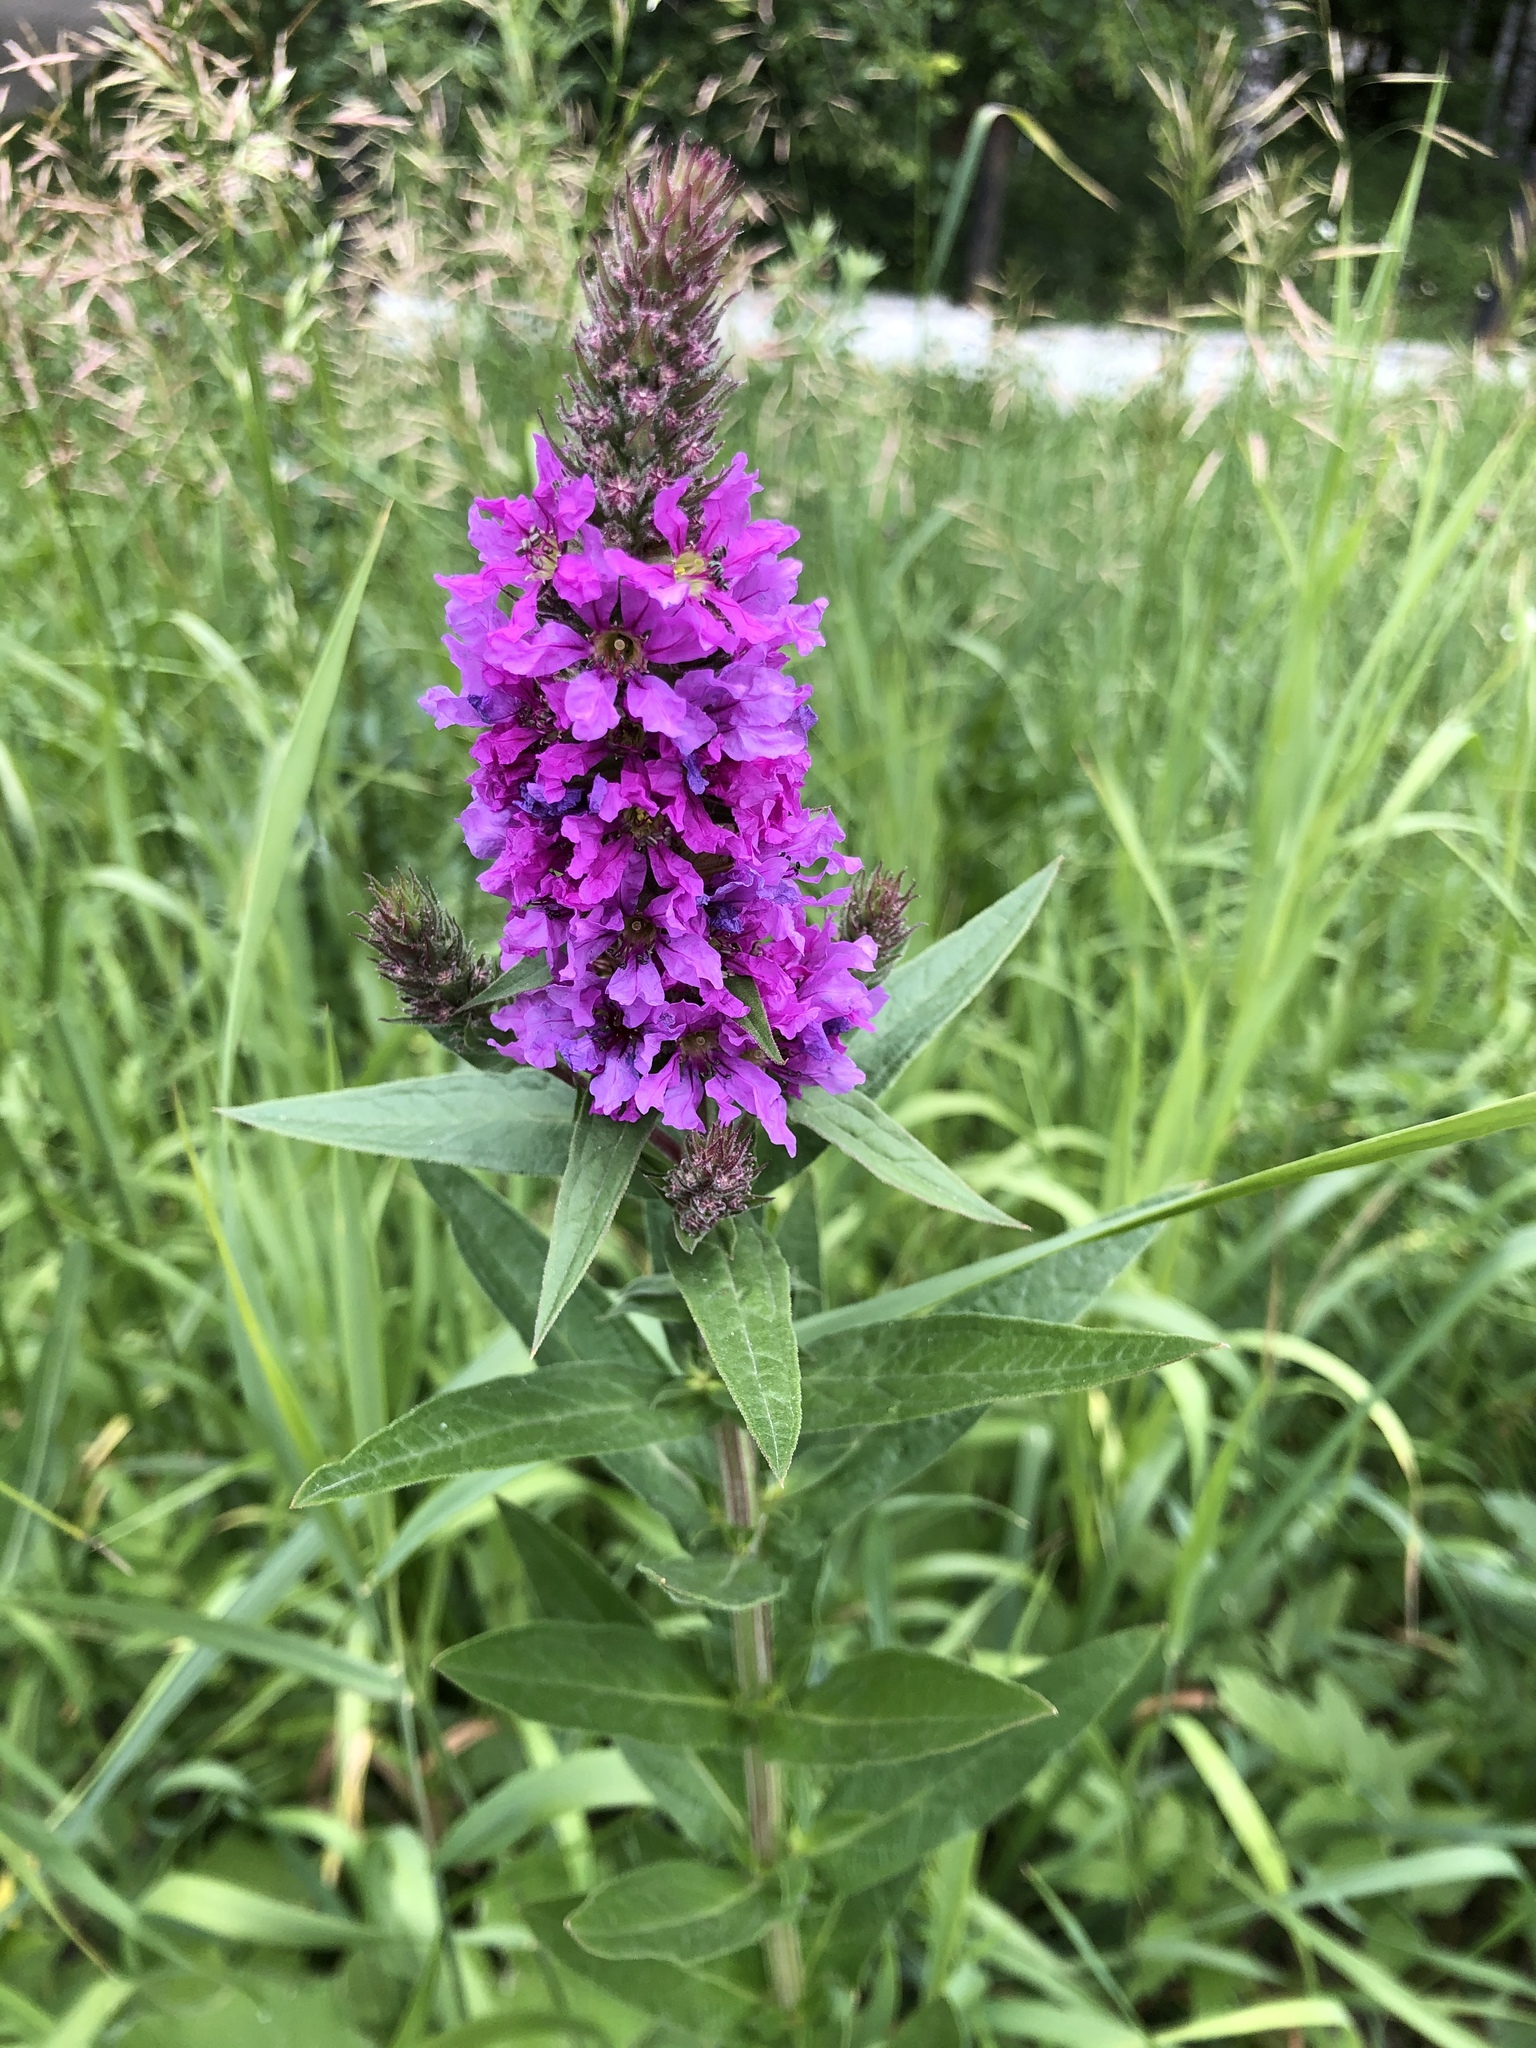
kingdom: Plantae
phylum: Tracheophyta
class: Magnoliopsida
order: Myrtales
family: Lythraceae
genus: Lythrum
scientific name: Lythrum salicaria
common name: Purple loosestrife
